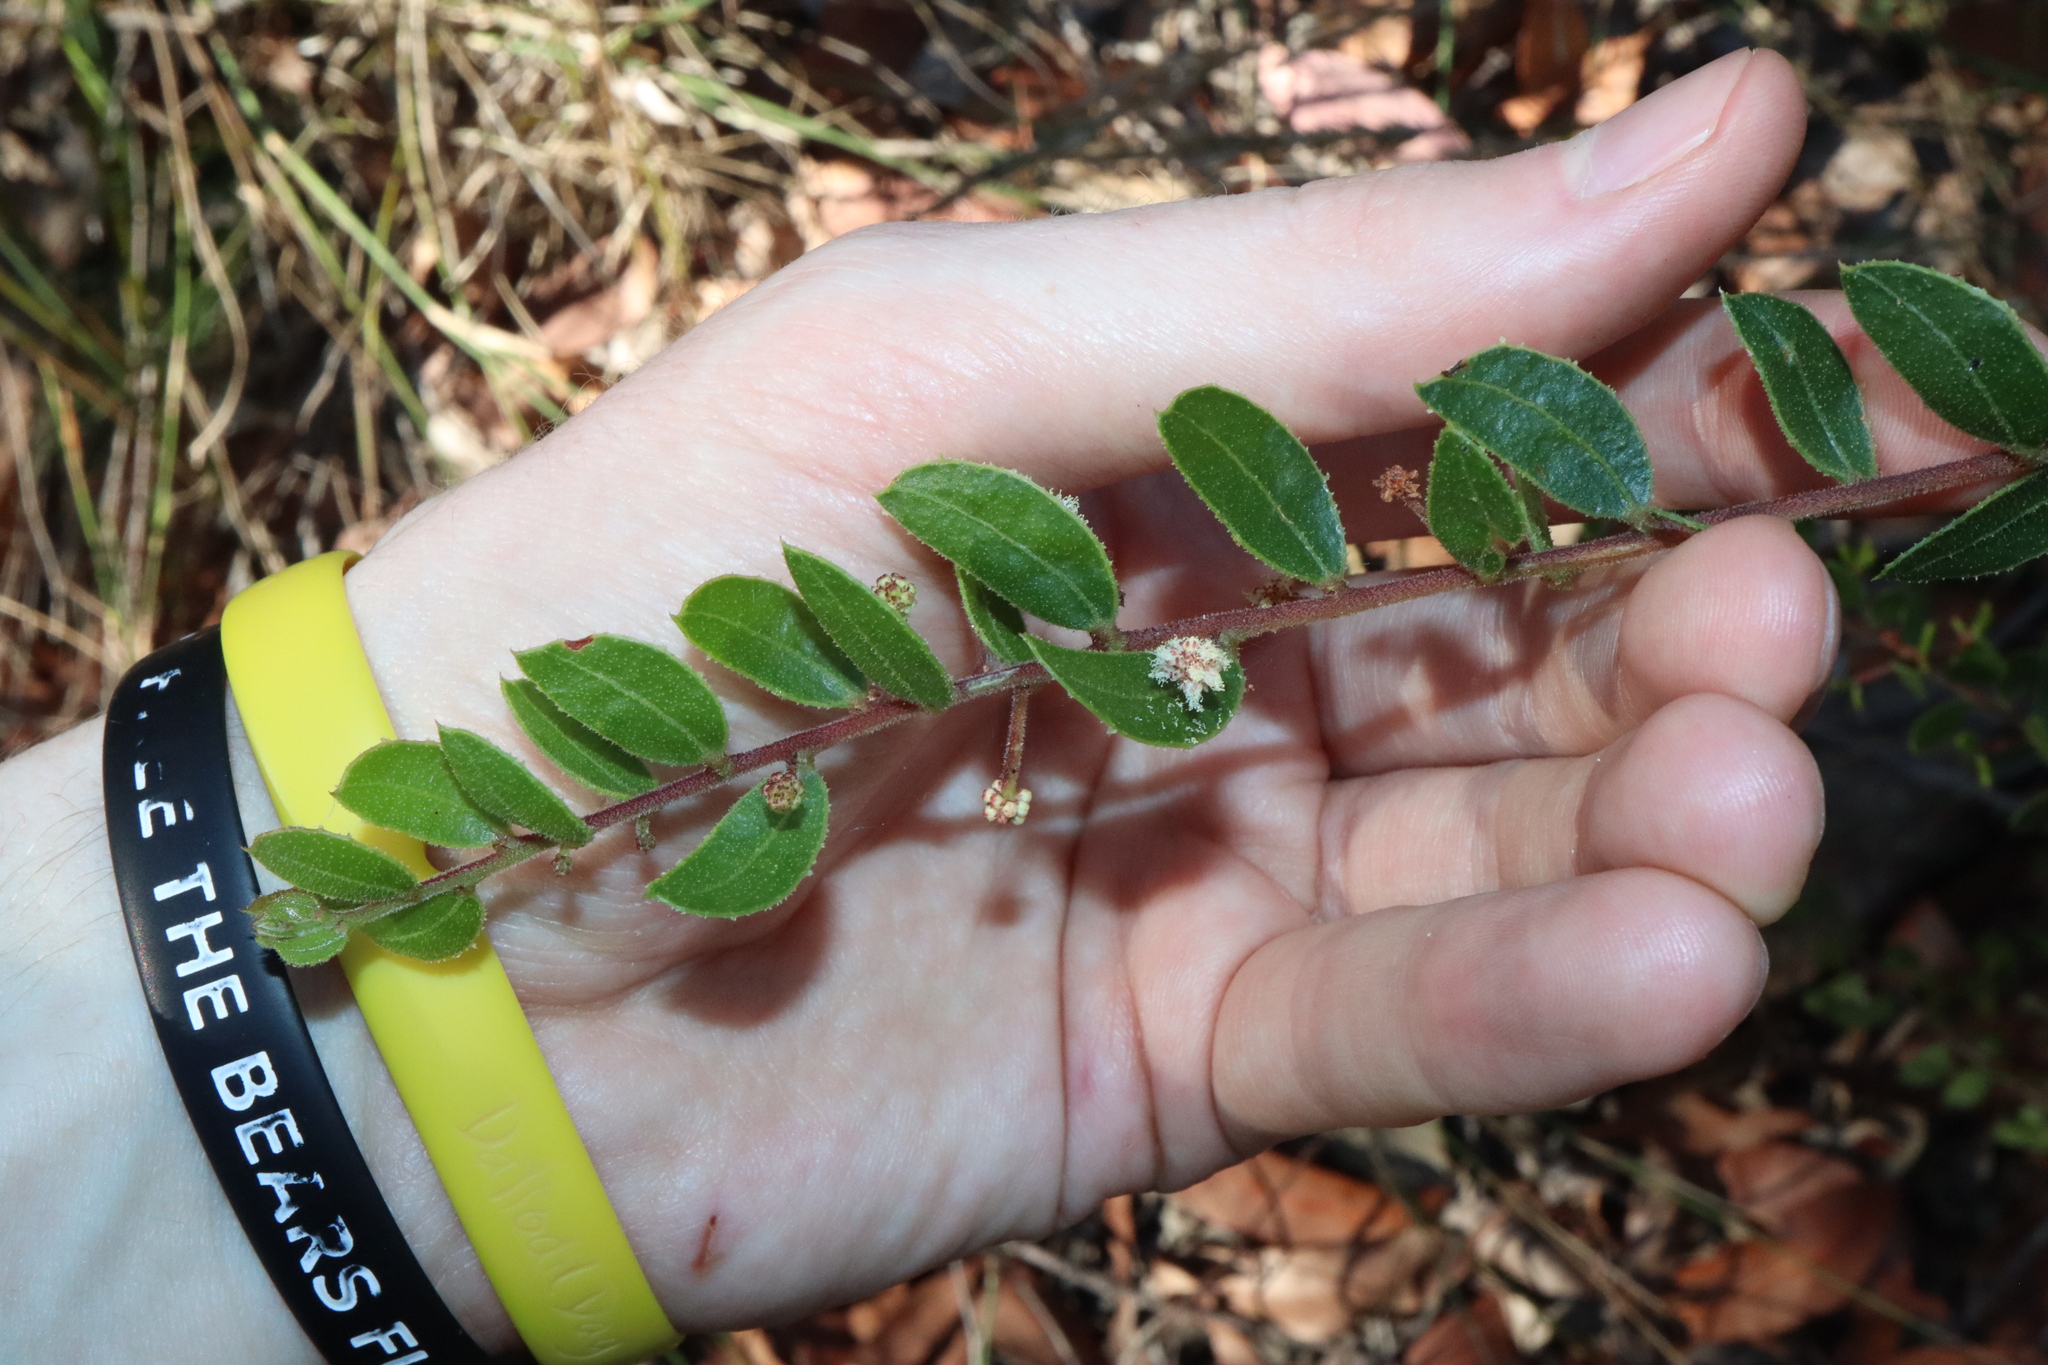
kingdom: Plantae
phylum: Tracheophyta
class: Magnoliopsida
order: Fabales
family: Fabaceae
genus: Acacia
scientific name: Acacia hispidula
